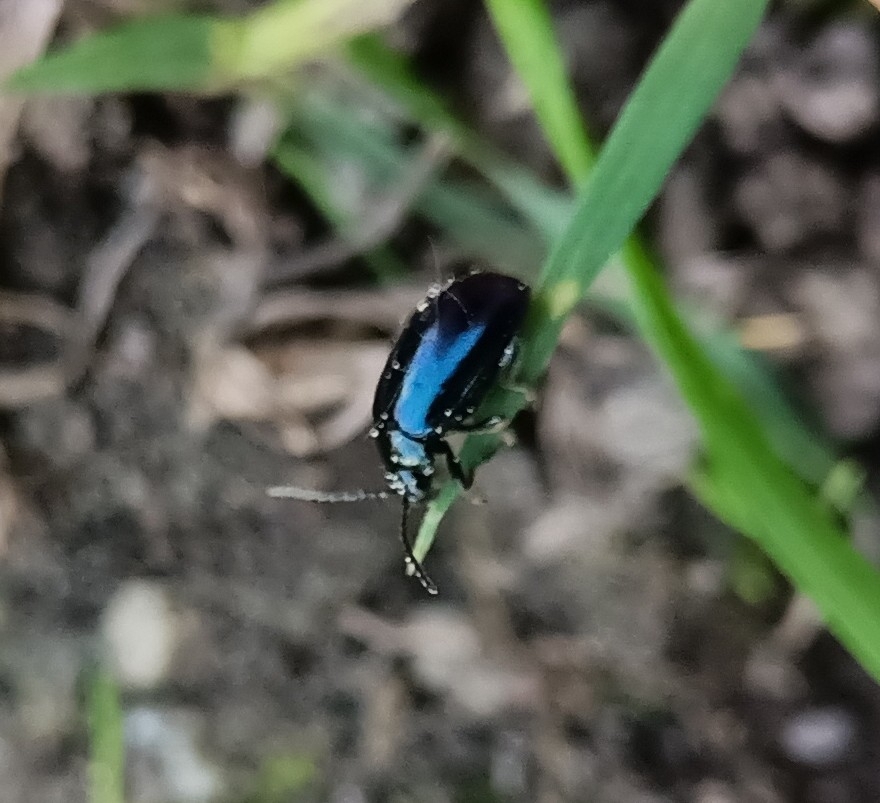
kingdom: Animalia
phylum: Arthropoda
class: Insecta
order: Coleoptera
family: Chrysomelidae
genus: Agelastica
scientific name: Agelastica alni
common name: Alder leaf beetle
